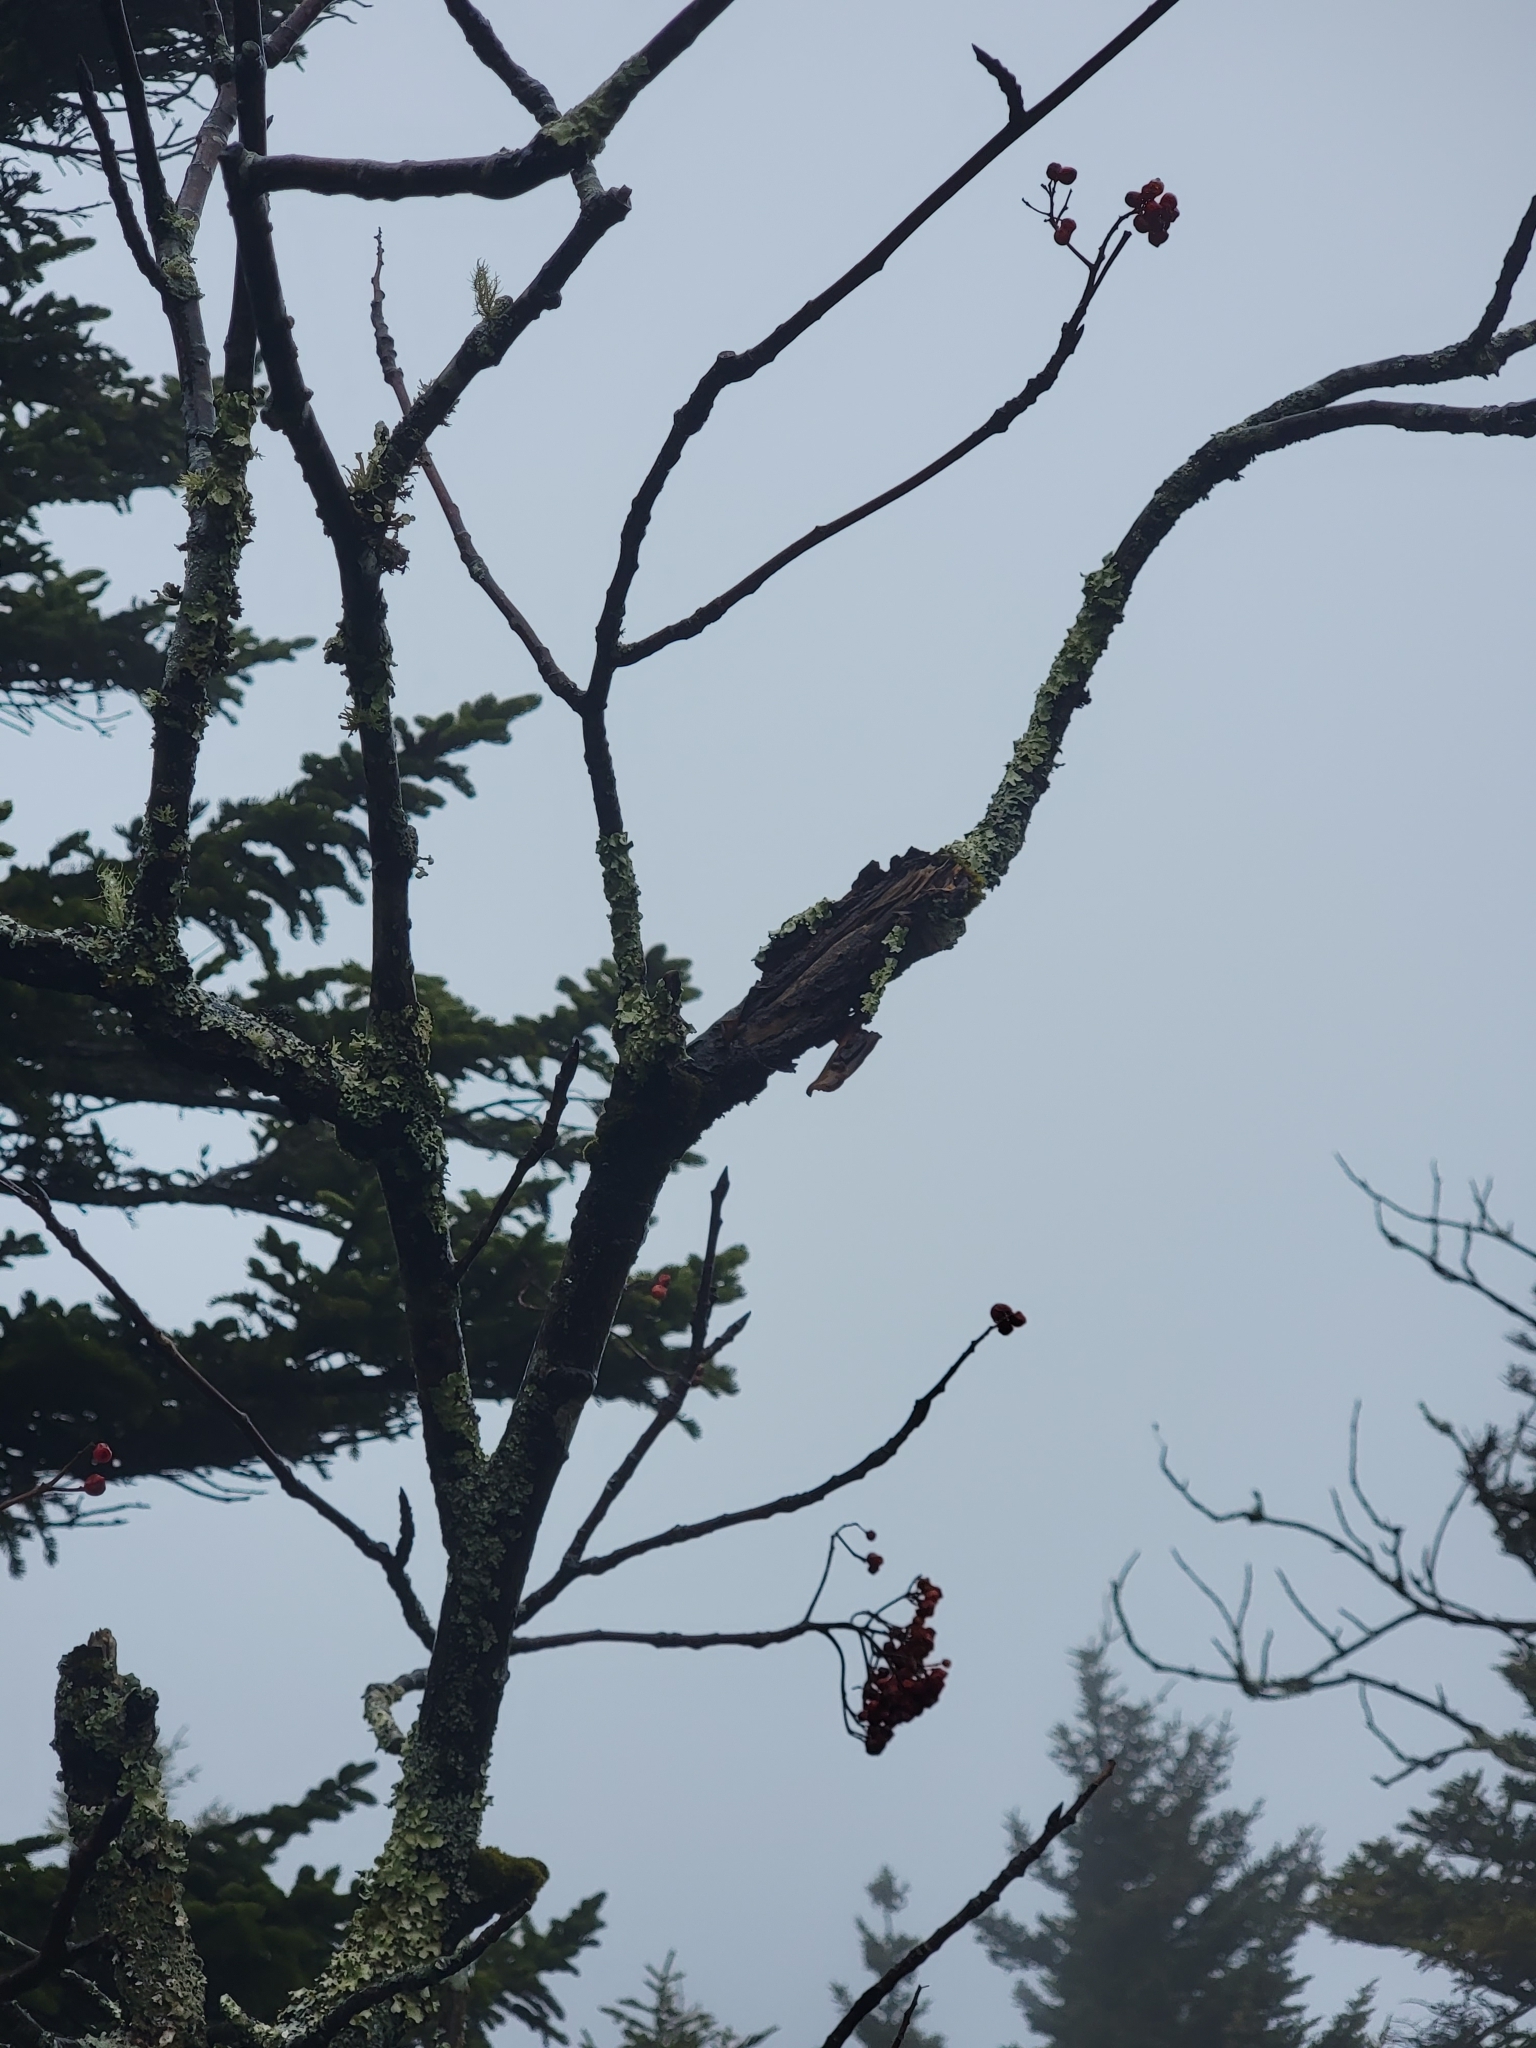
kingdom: Plantae
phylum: Tracheophyta
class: Magnoliopsida
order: Rosales
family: Rosaceae
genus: Sorbus
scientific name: Sorbus americana
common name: American mountain-ash
